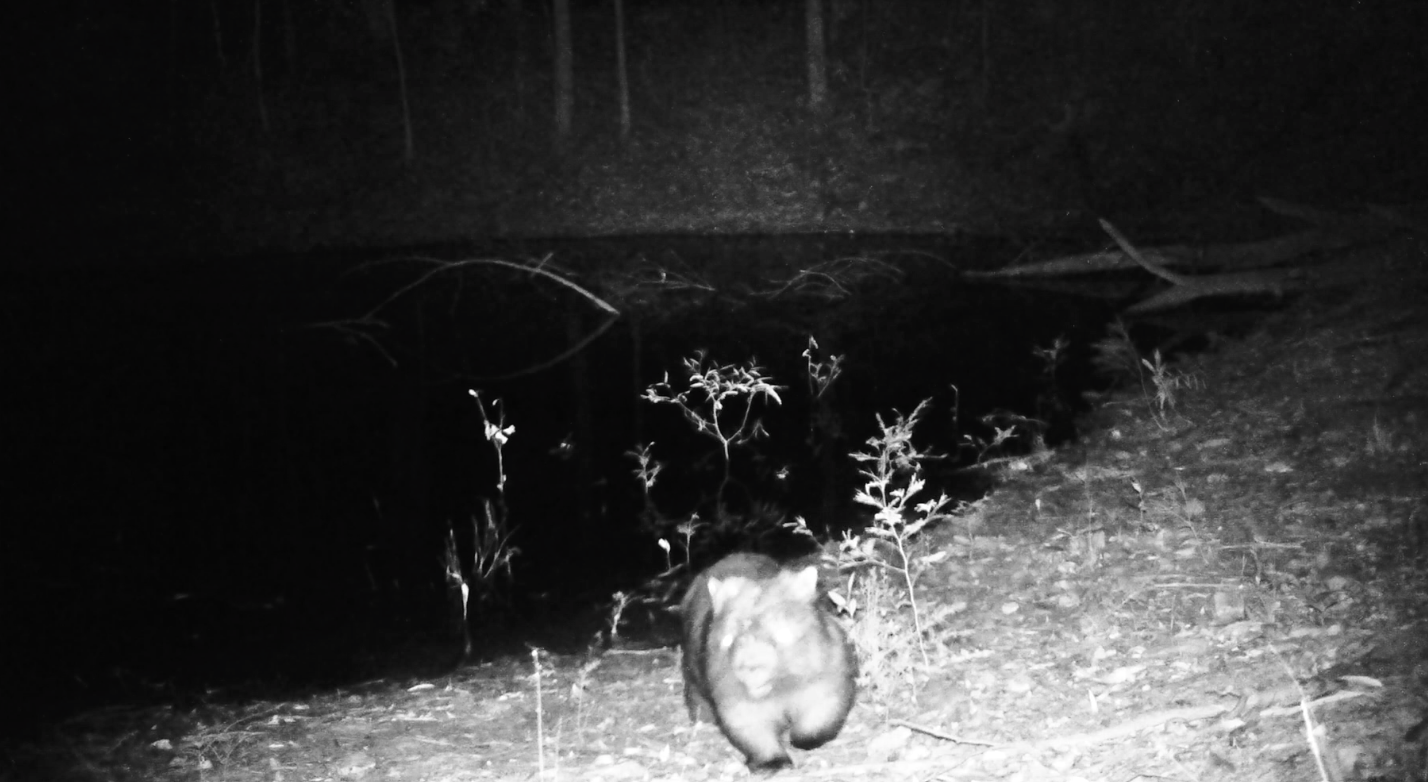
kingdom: Animalia
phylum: Chordata
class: Mammalia
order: Diprotodontia
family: Vombatidae
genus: Vombatus
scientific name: Vombatus ursinus
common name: Common wombat
